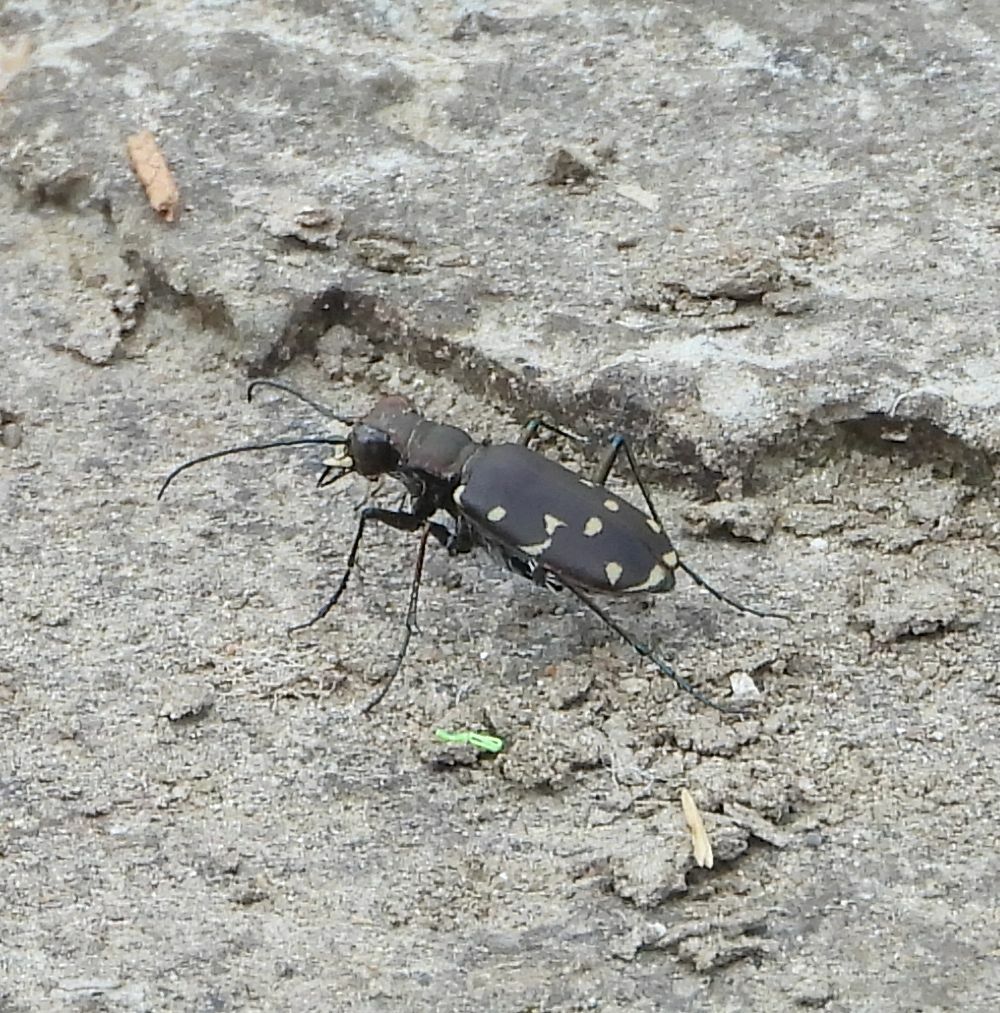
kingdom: Animalia
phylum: Arthropoda
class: Insecta
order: Coleoptera
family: Carabidae
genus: Cicindela
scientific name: Cicindela duodecimguttata
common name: Twelve-spotted tiger beetle
